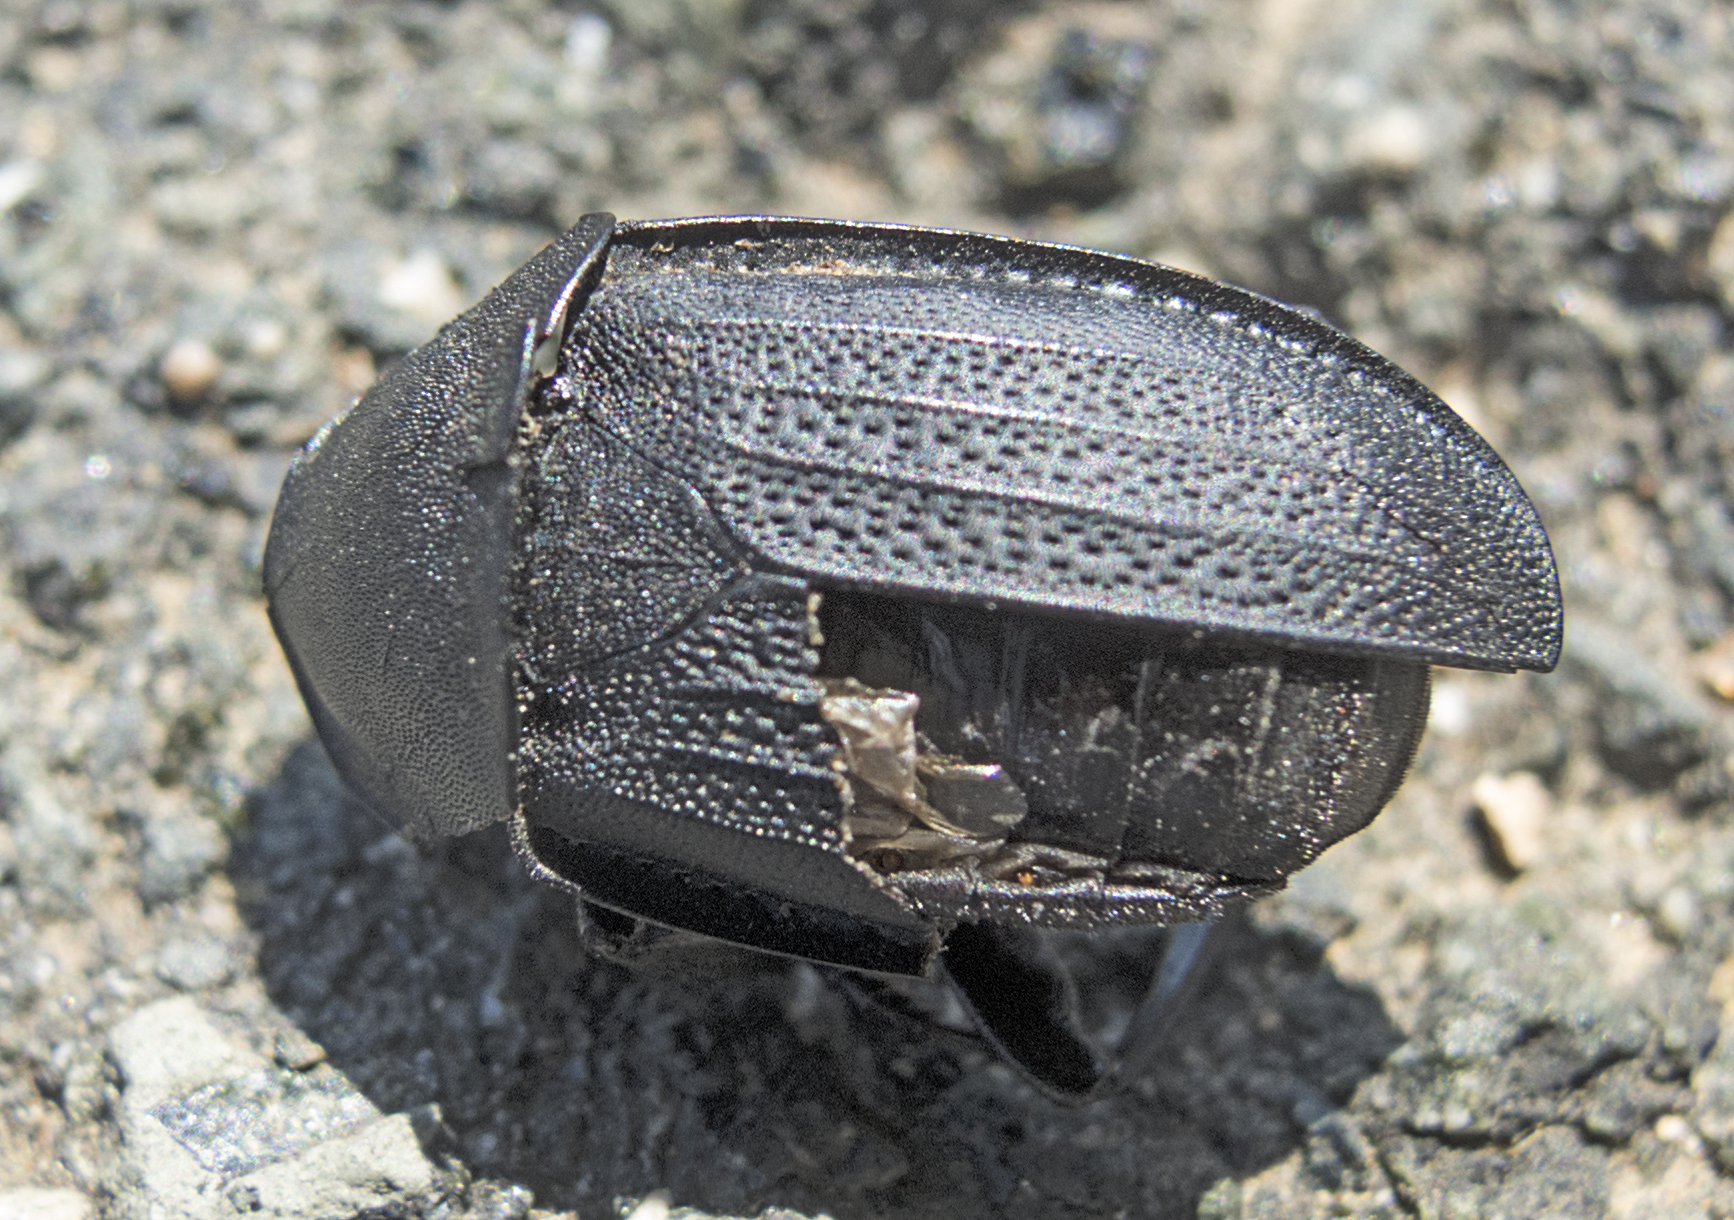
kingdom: Animalia
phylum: Arthropoda
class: Insecta
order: Coleoptera
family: Staphylinidae
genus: Silpha
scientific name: Silpha obscura
